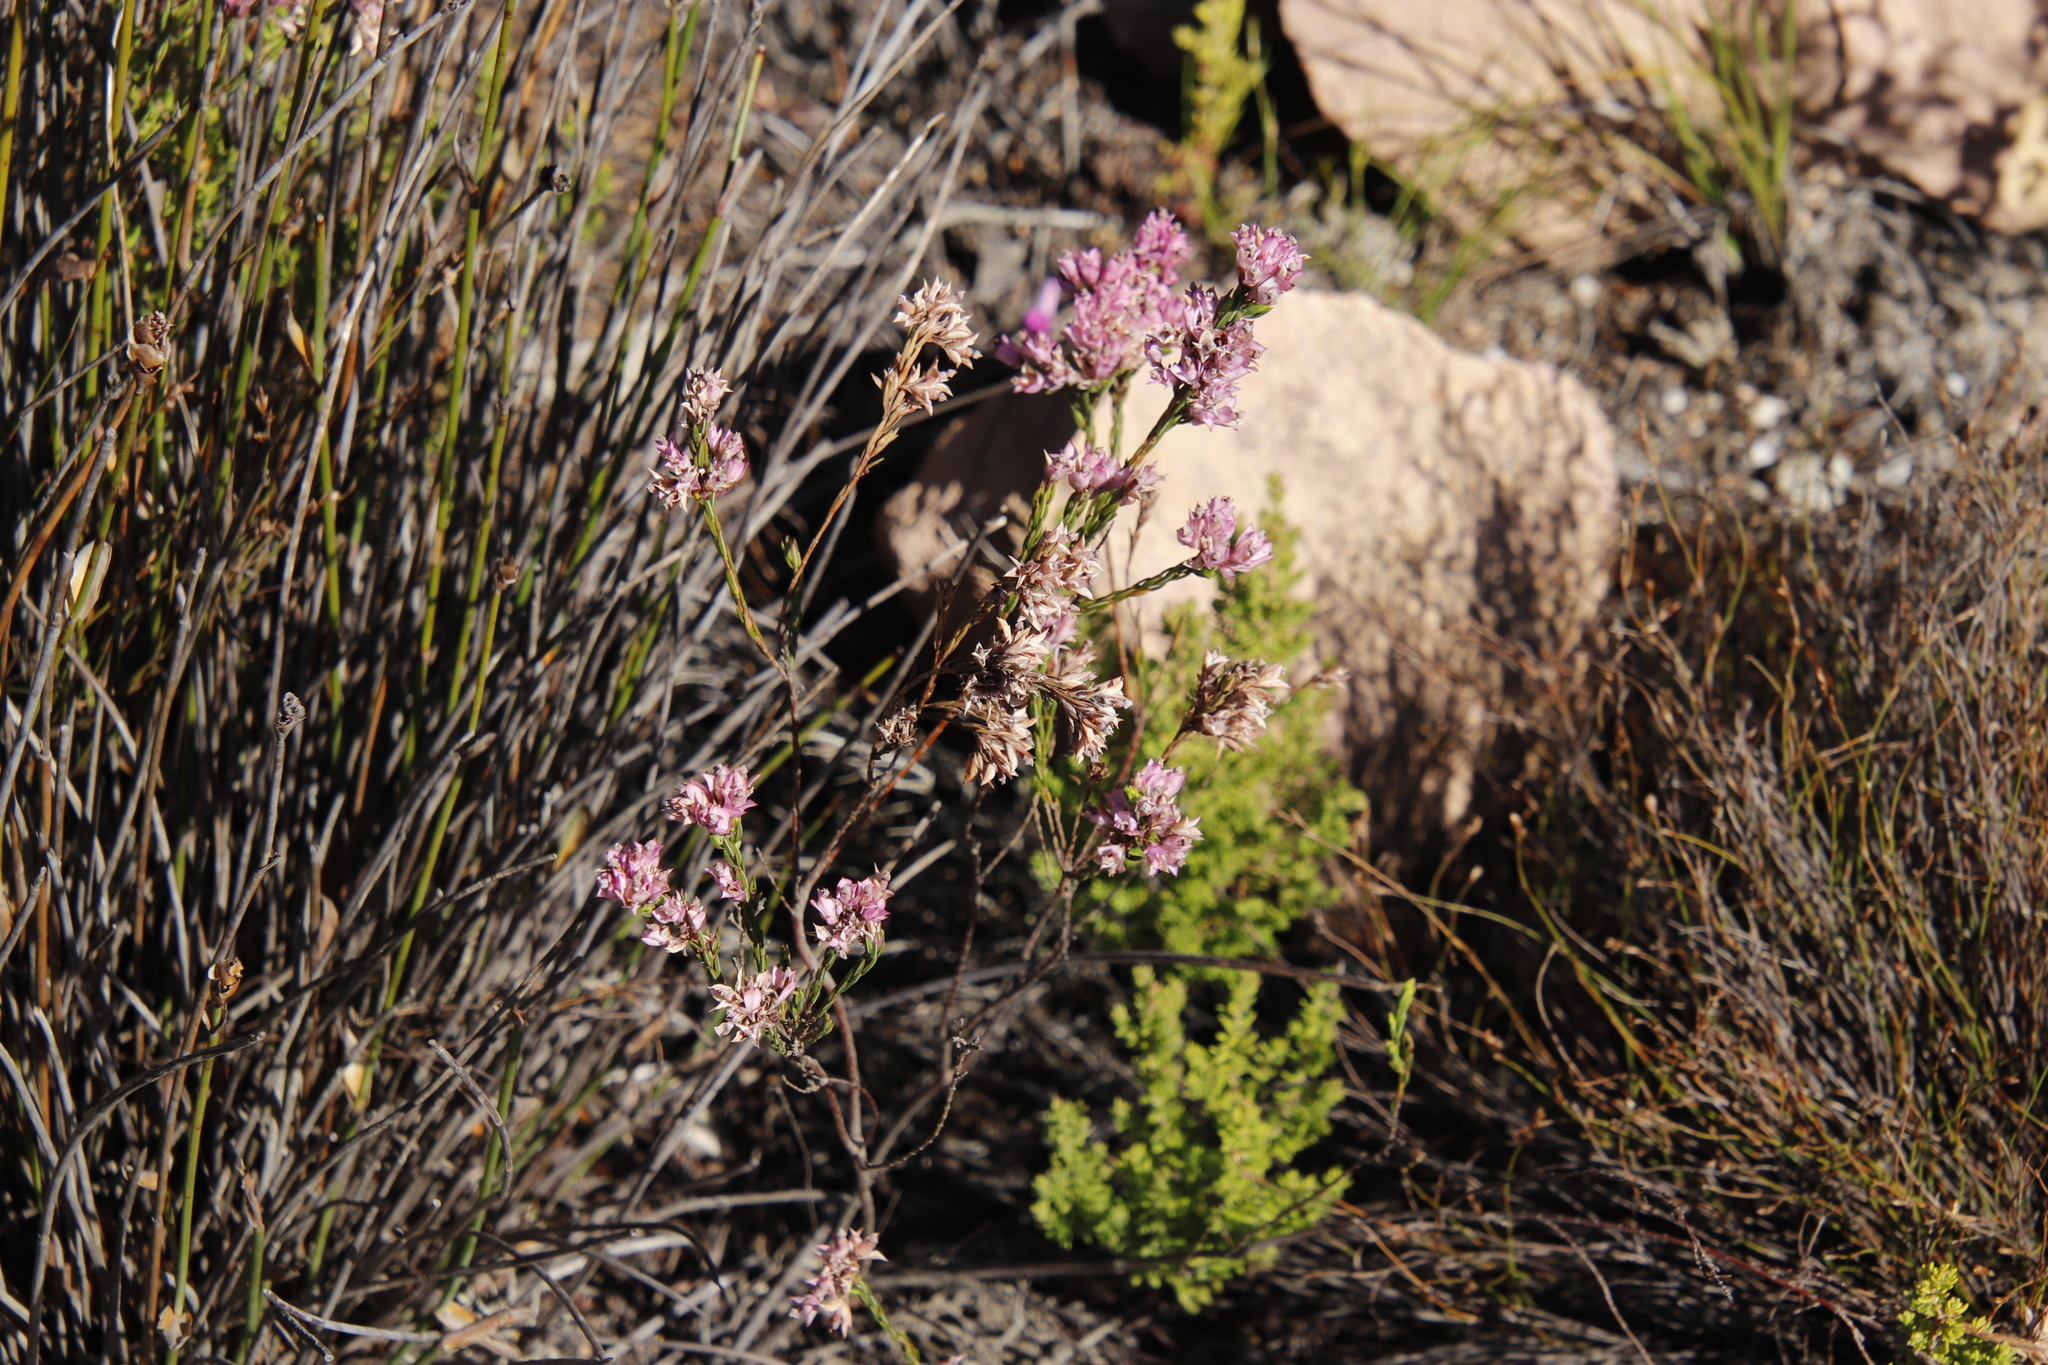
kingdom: Plantae
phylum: Tracheophyta
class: Magnoliopsida
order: Ericales
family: Ericaceae
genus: Erica
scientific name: Erica corifolia
